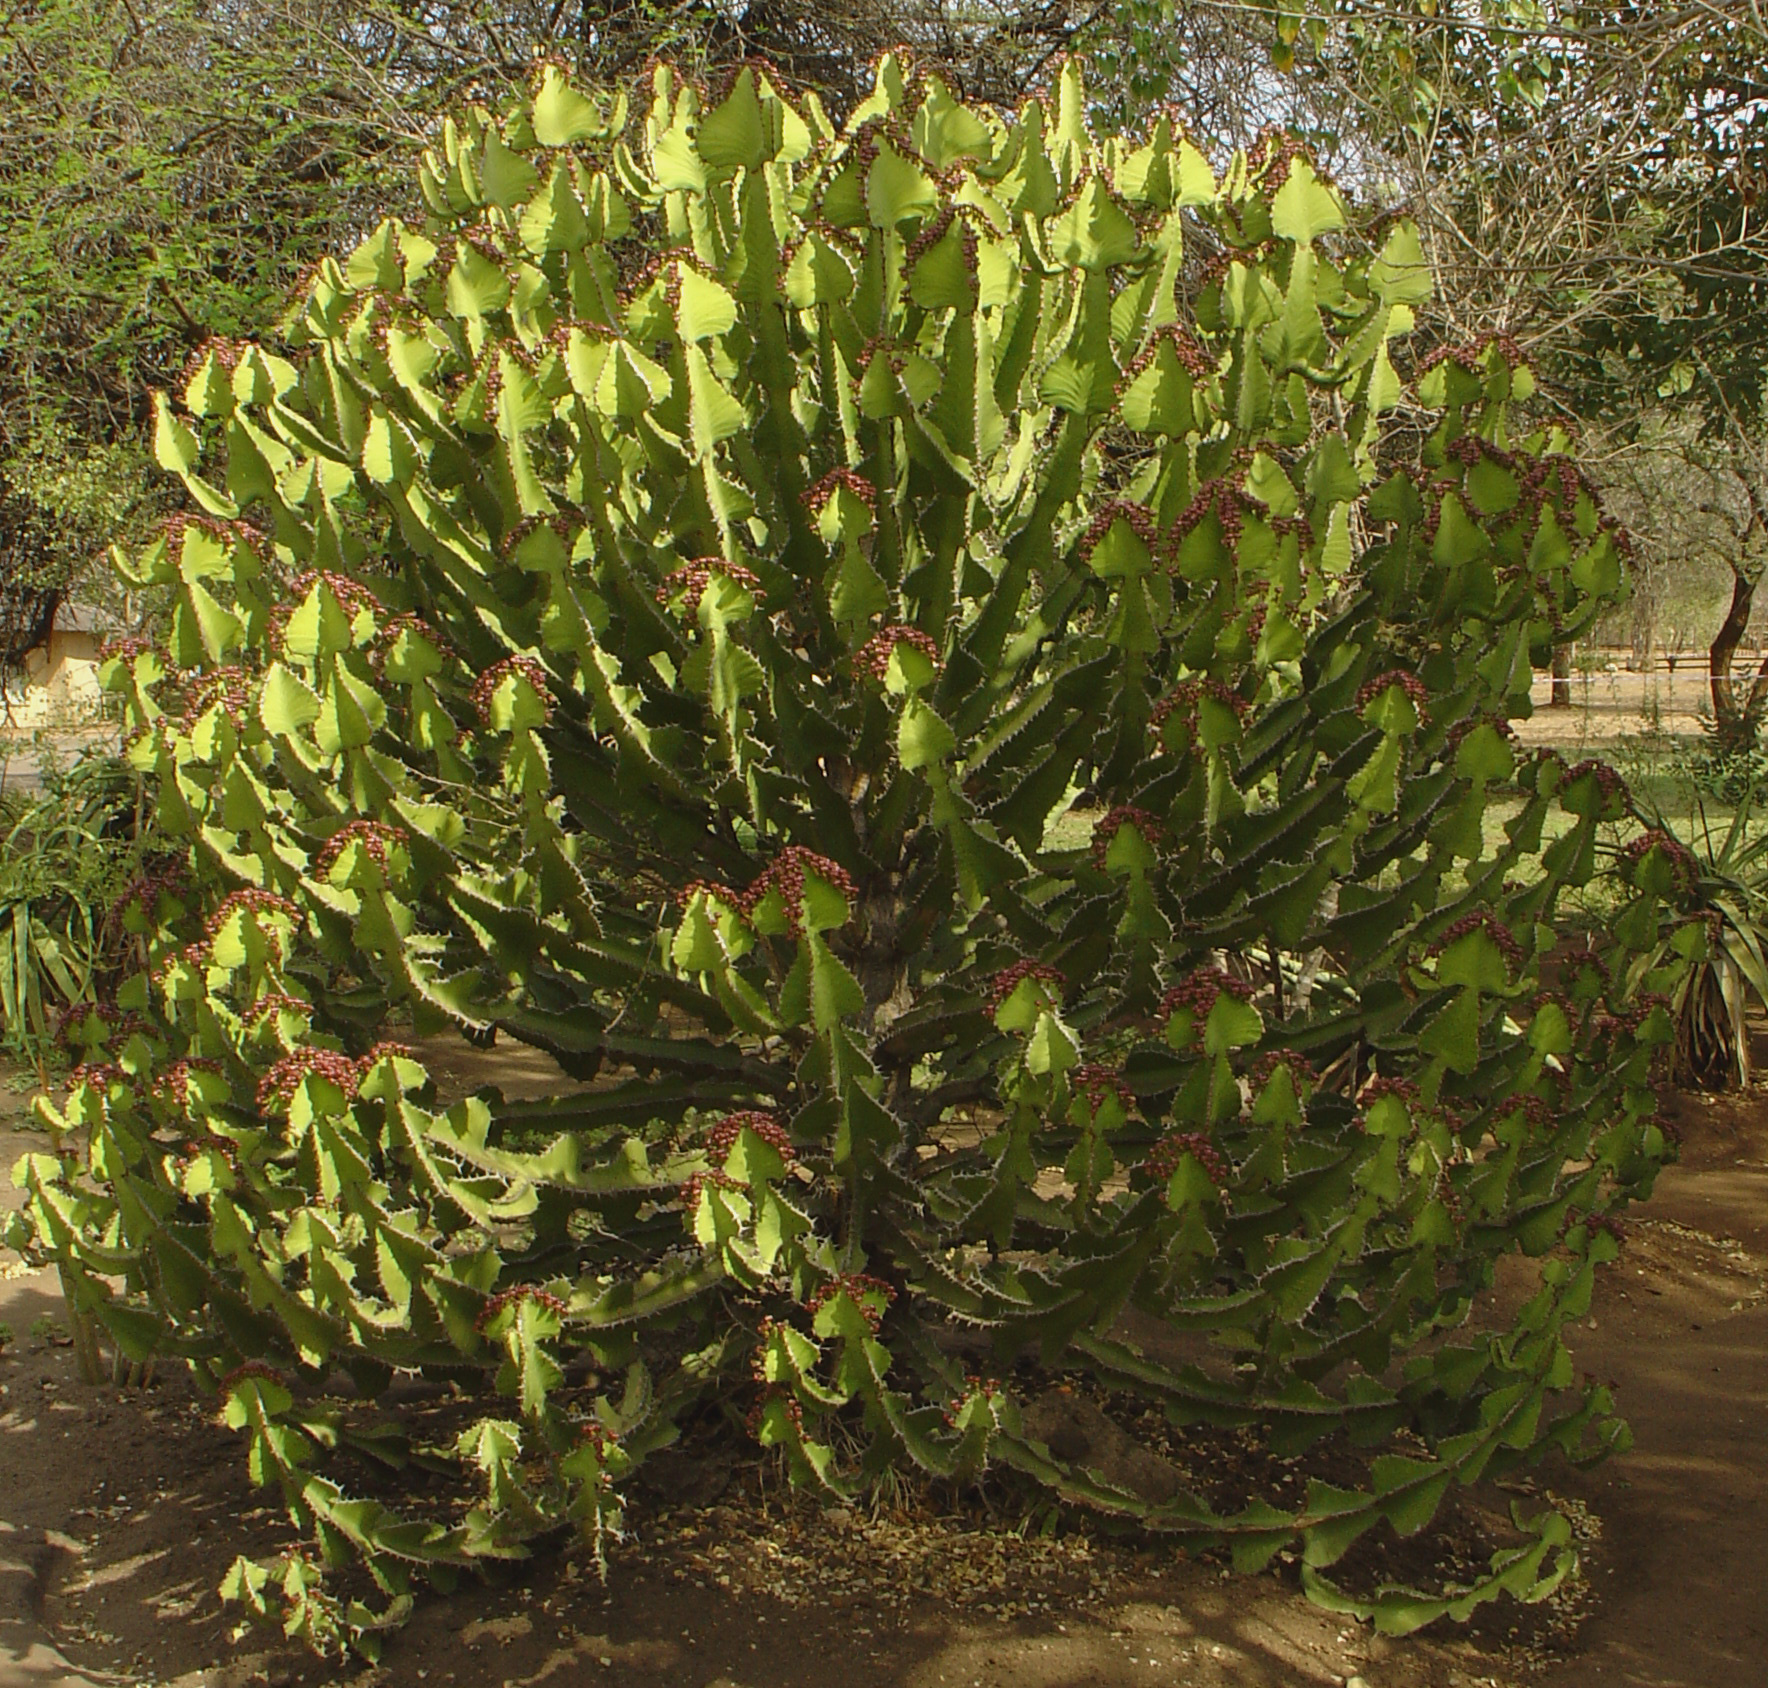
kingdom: Plantae
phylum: Tracheophyta
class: Magnoliopsida
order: Malpighiales
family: Euphorbiaceae
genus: Euphorbia
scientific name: Euphorbia cooperi
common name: Candelabra tree
